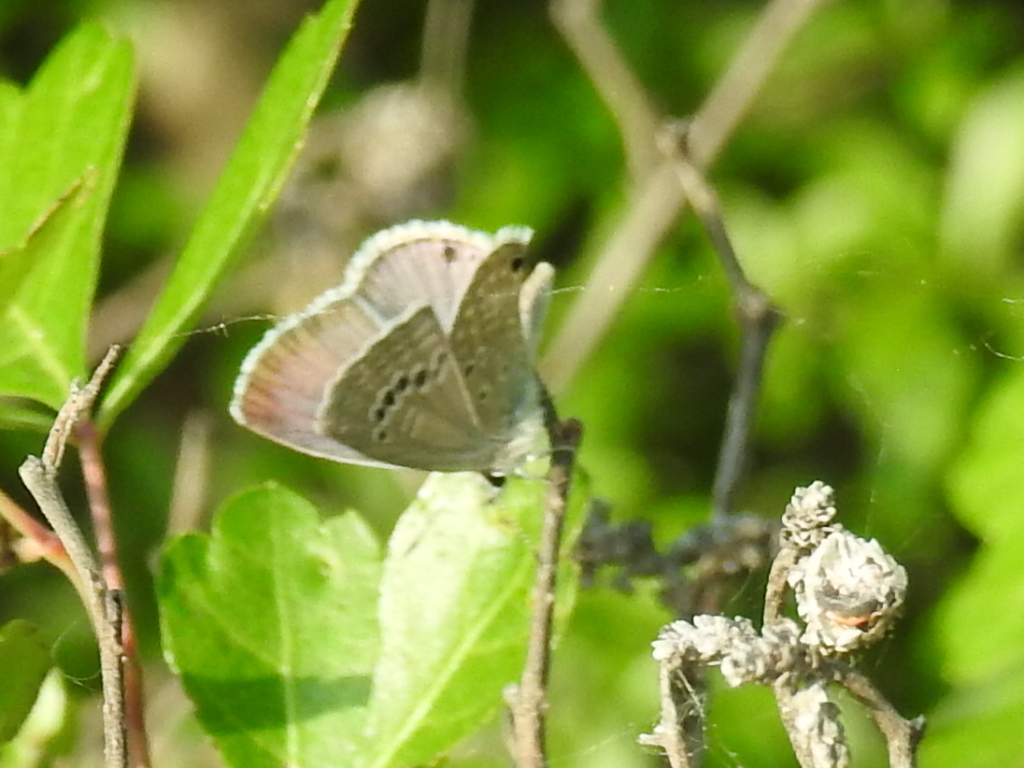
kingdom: Animalia
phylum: Arthropoda
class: Insecta
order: Lepidoptera
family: Lycaenidae
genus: Echinargus
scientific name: Echinargus isola
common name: Reakirt's blue
